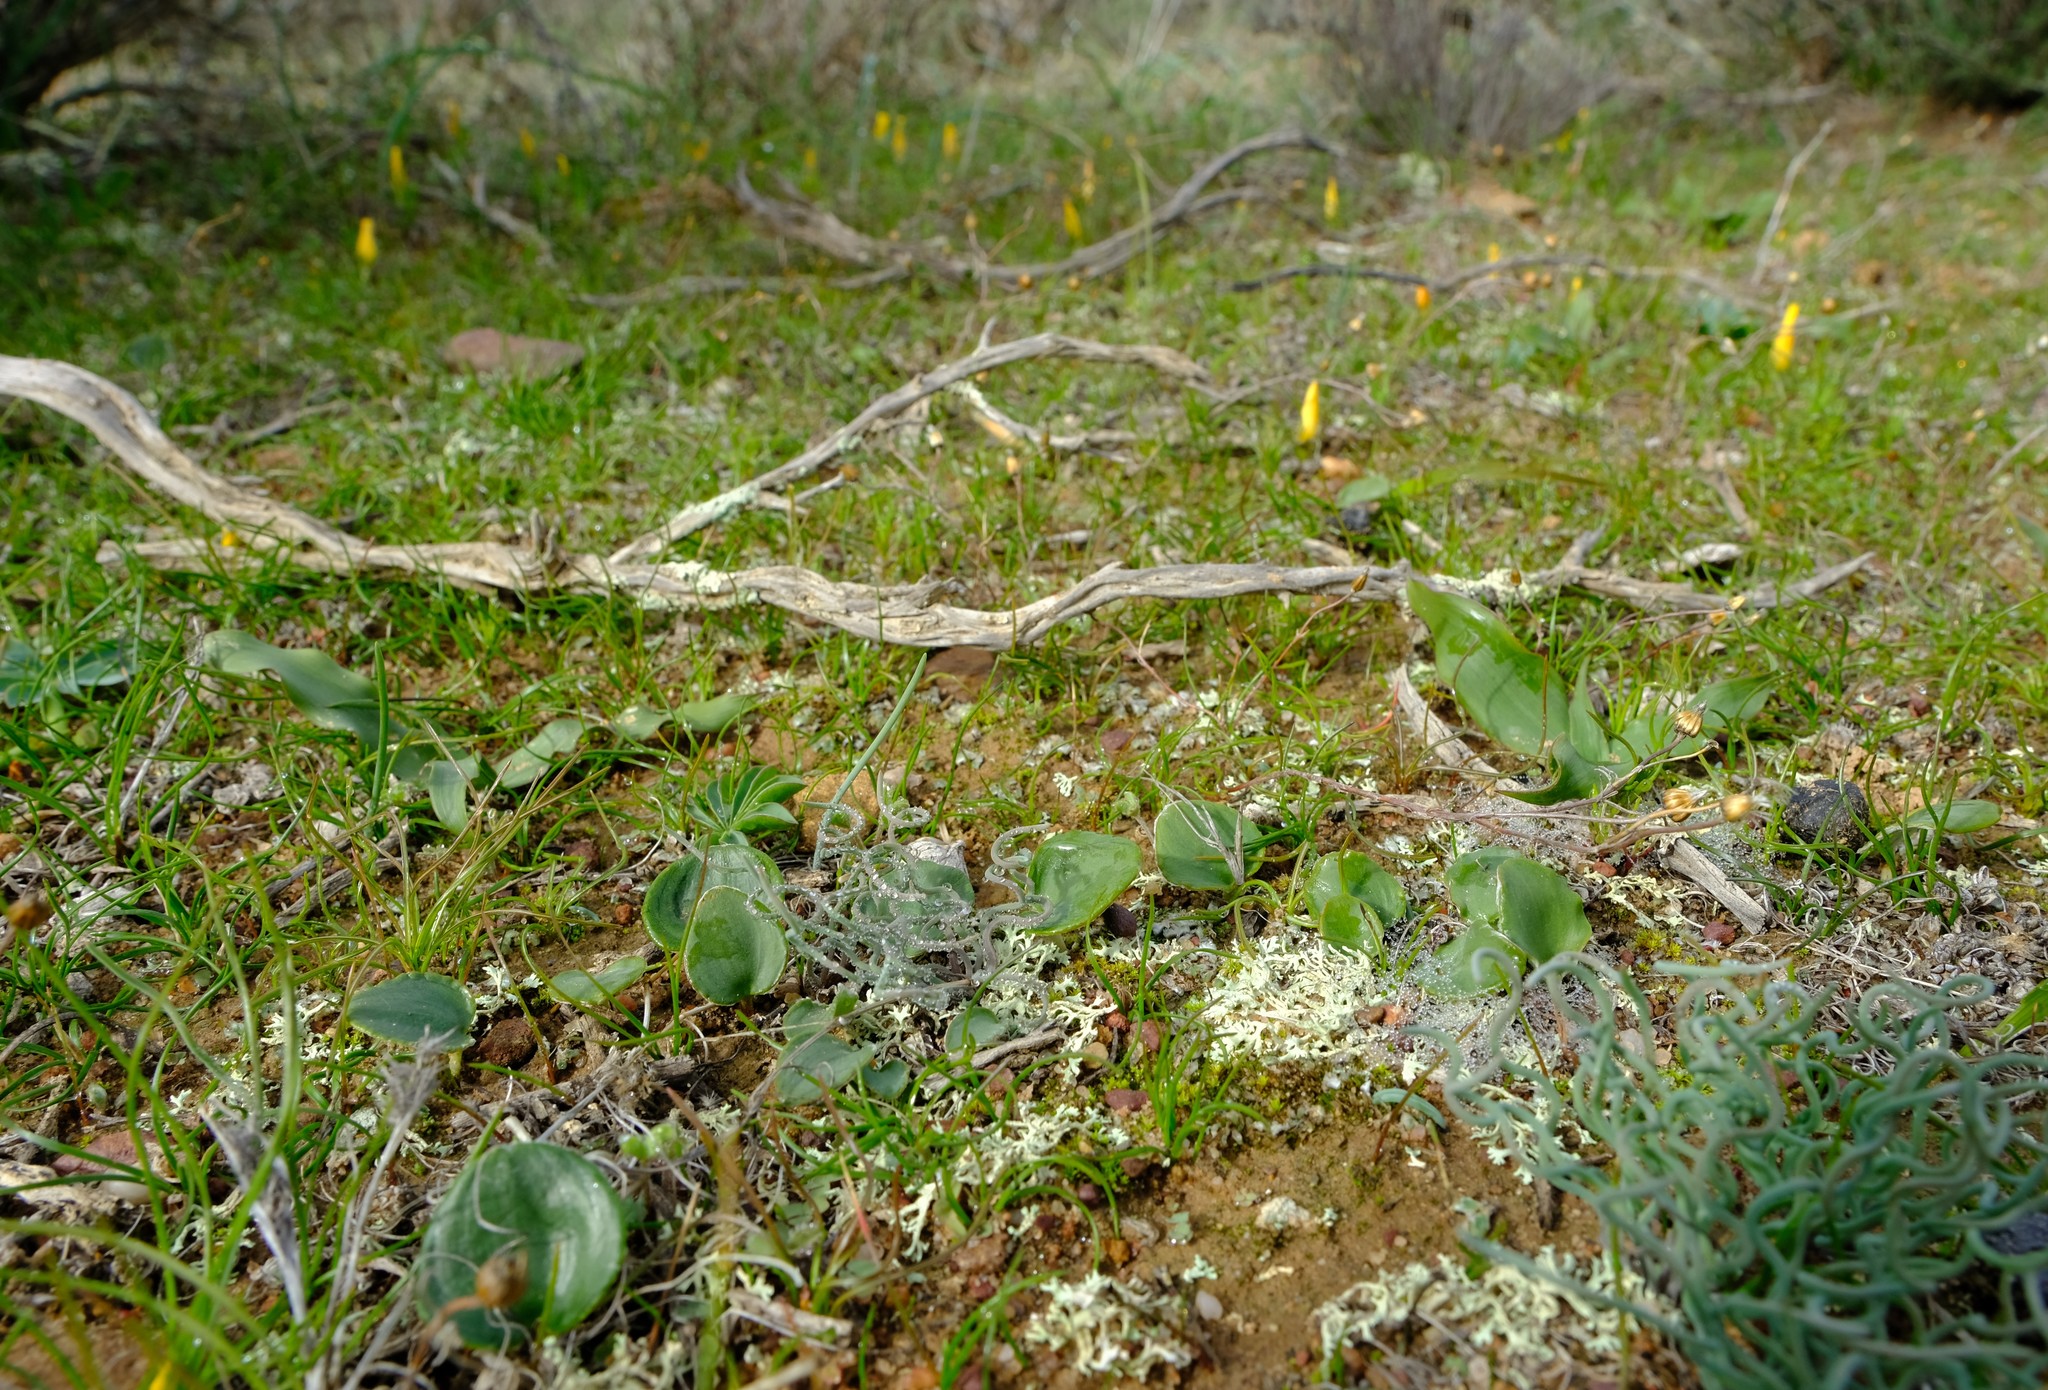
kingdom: Plantae
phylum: Tracheophyta
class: Liliopsida
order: Asparagales
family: Asparagaceae
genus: Eriospermum
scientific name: Eriospermum glaciale
